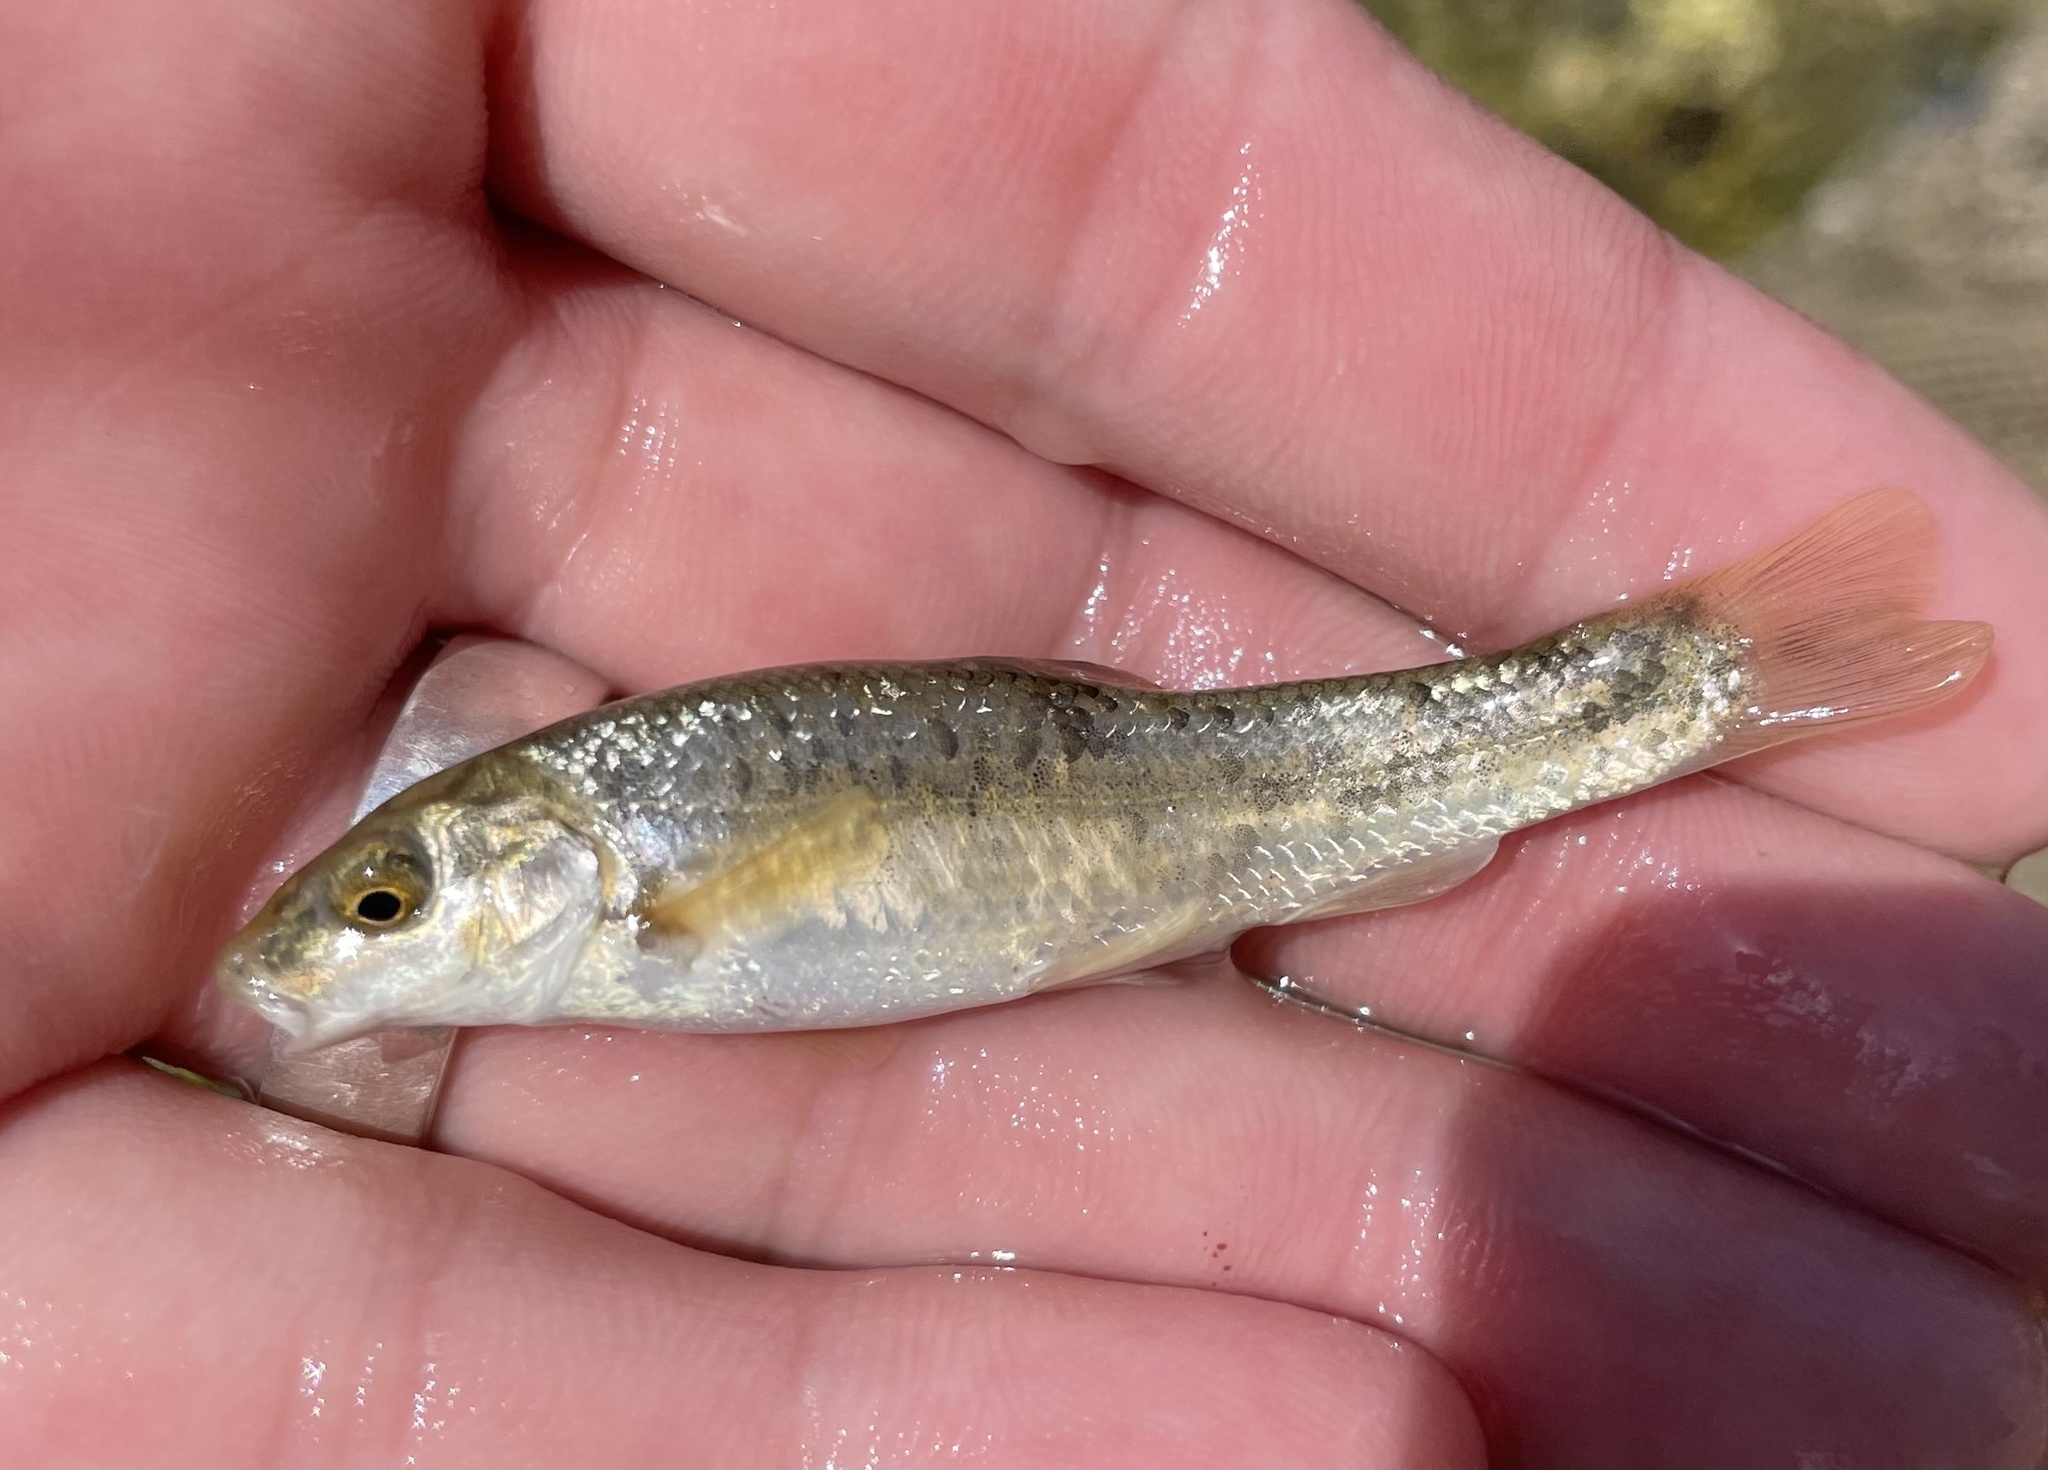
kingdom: Animalia
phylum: Chordata
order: Cypriniformes
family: Cyprinidae
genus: Campostoma
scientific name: Campostoma anomalum
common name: Central stoneroller
